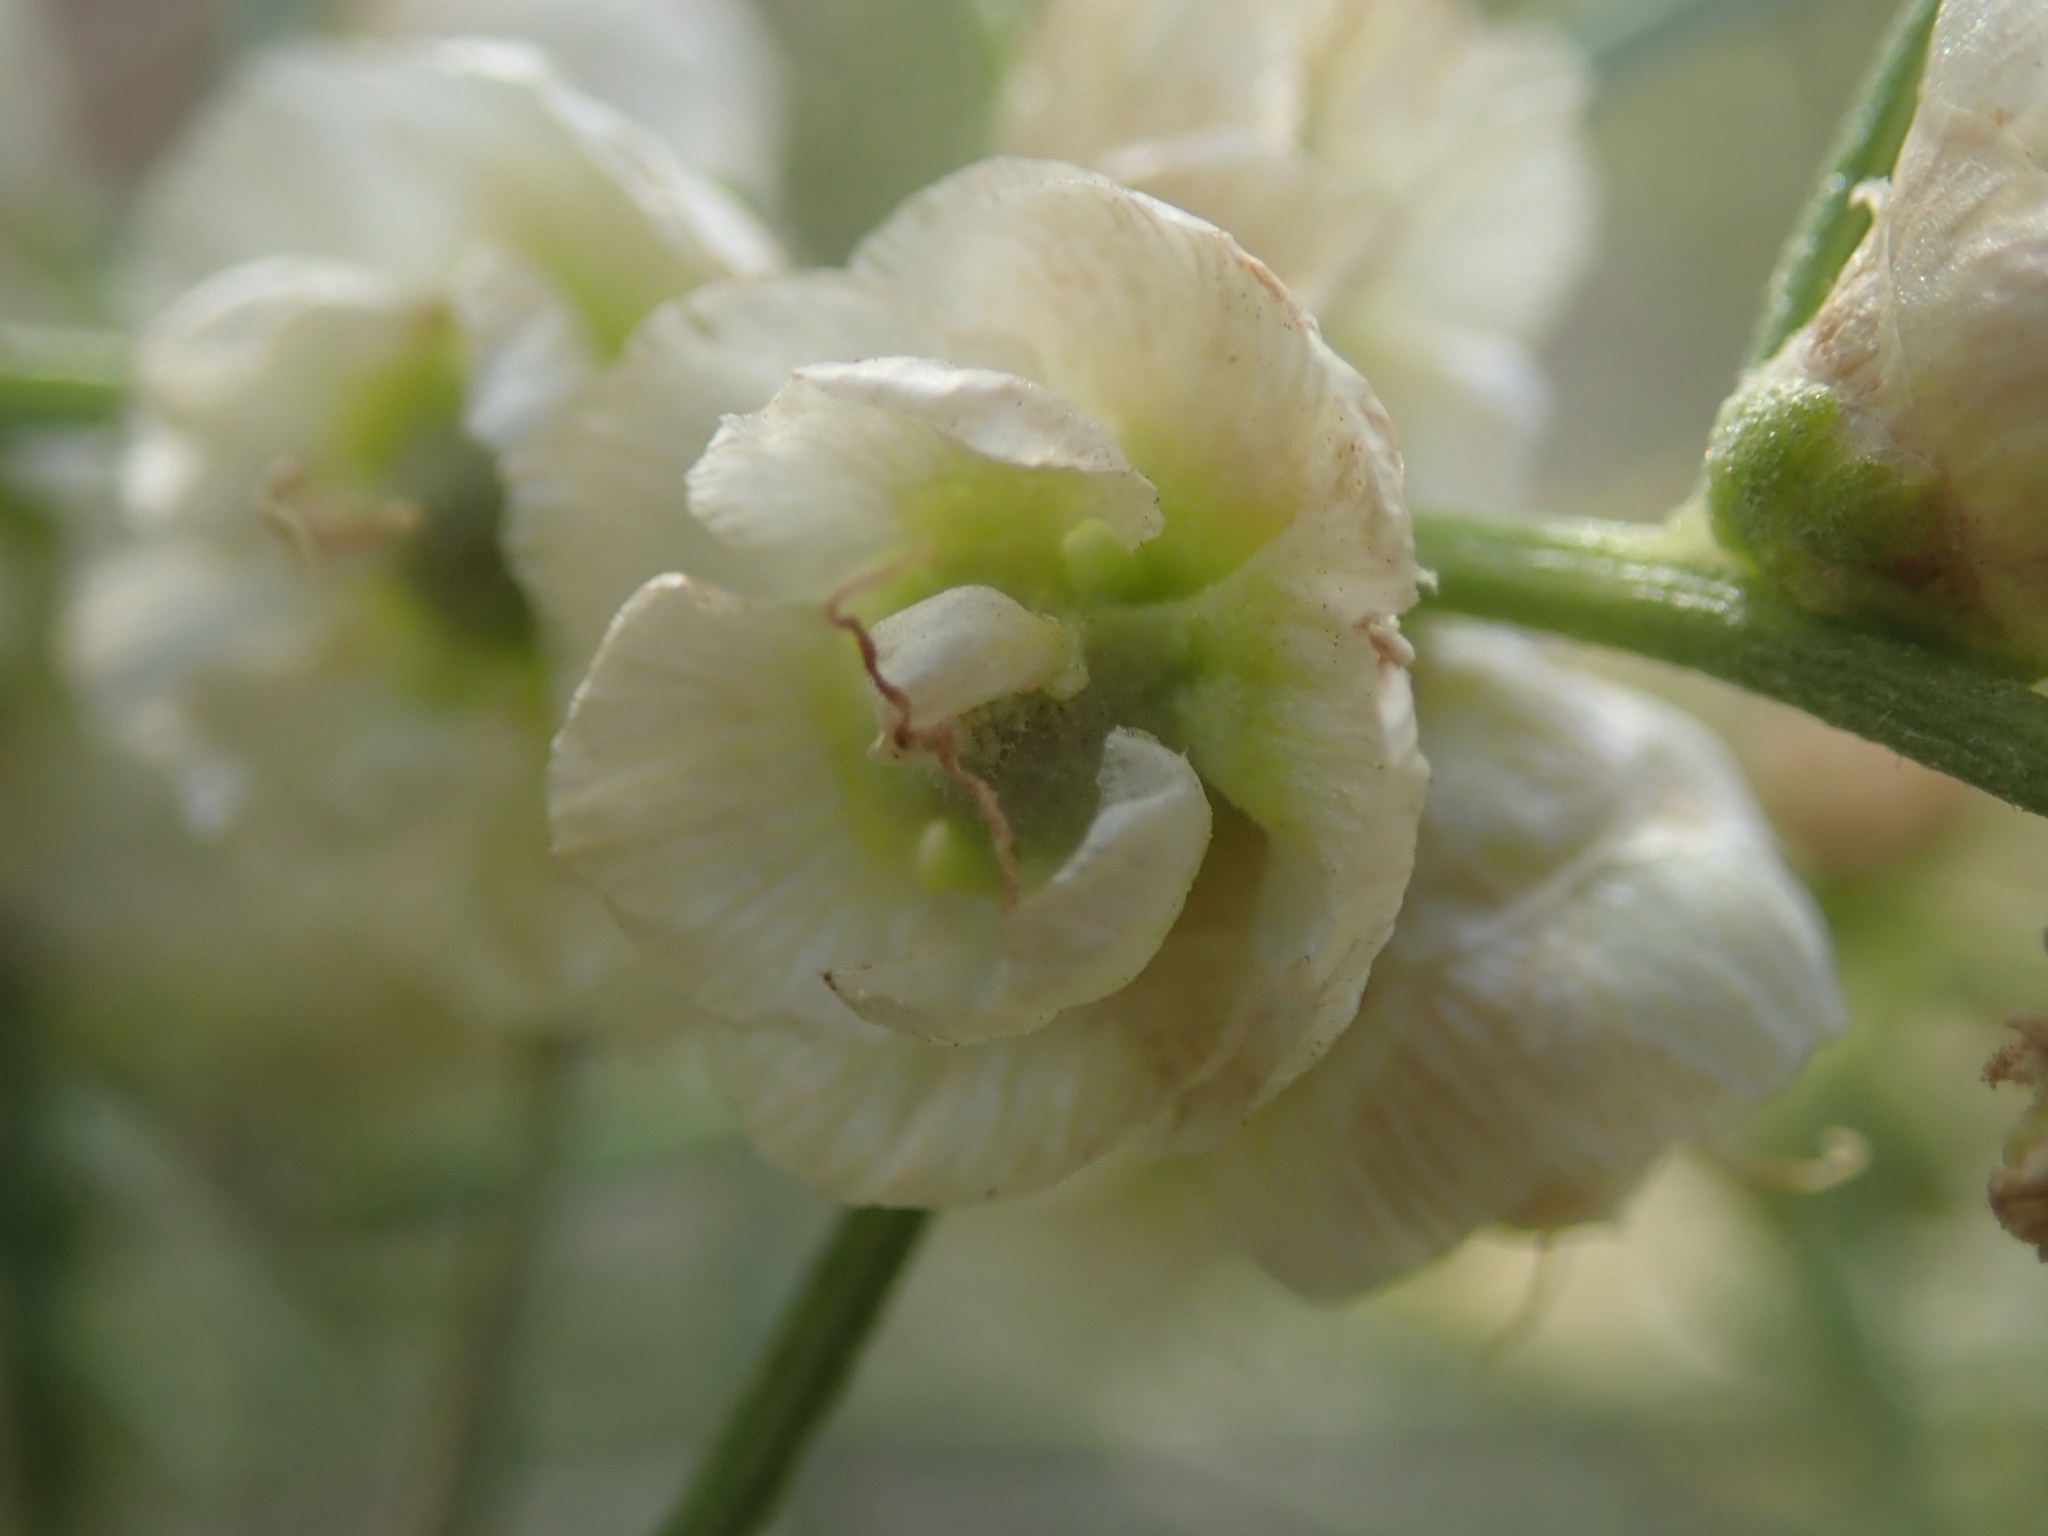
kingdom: Plantae
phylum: Tracheophyta
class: Magnoliopsida
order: Asterales
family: Asteraceae
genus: Ambrosia
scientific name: Ambrosia salsola
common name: Burrobrush
